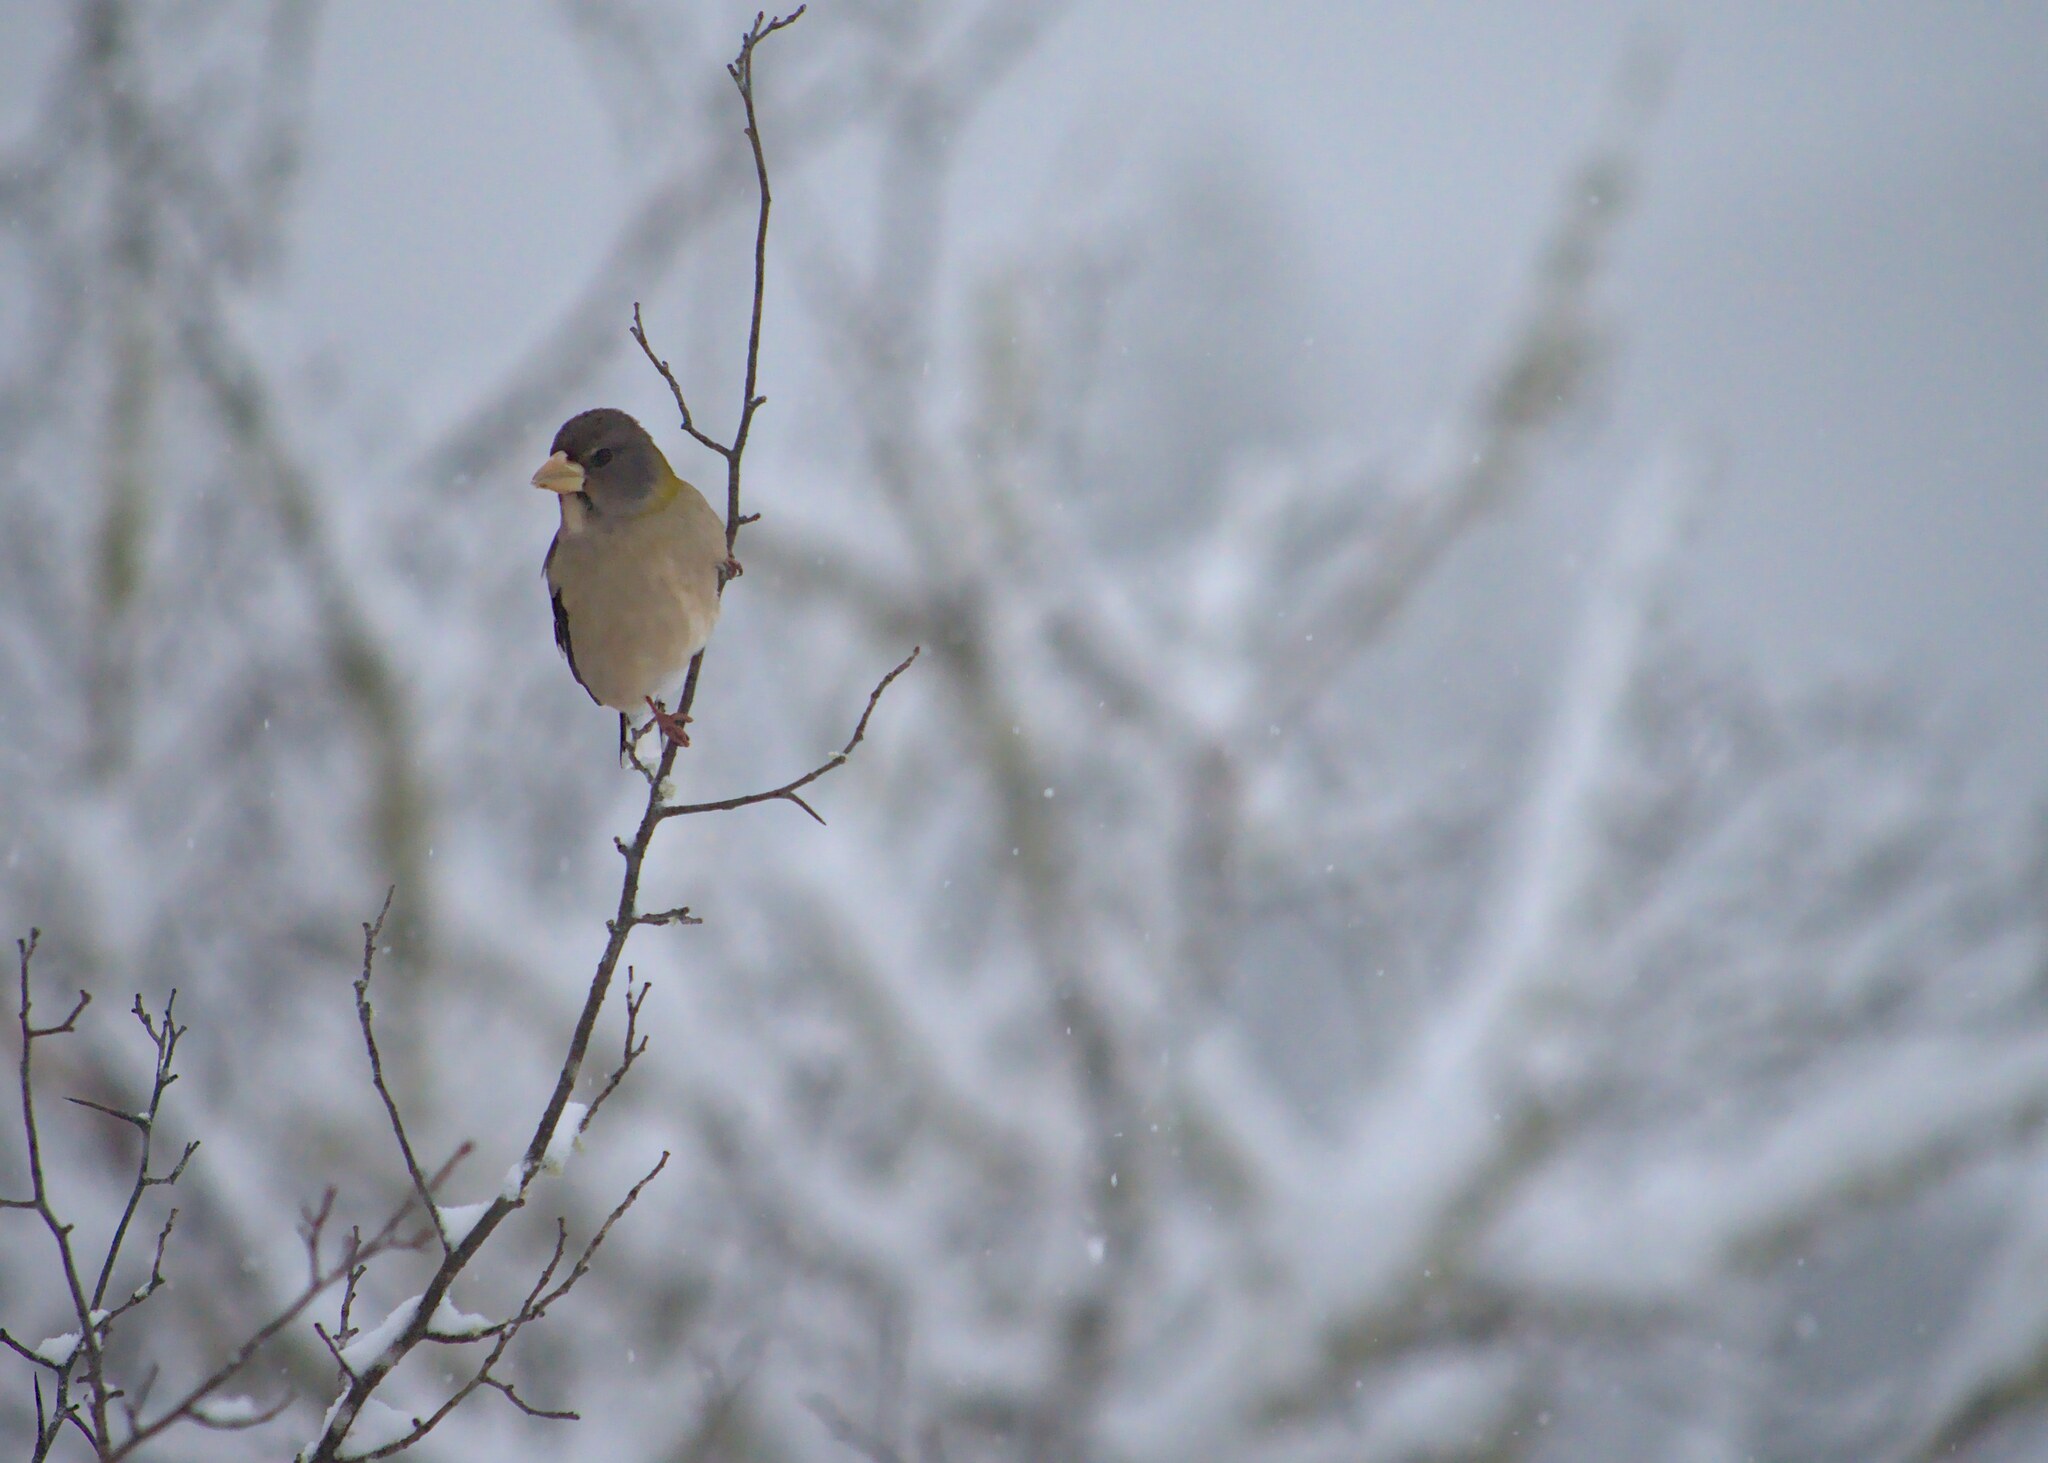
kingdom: Animalia
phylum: Chordata
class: Aves
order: Passeriformes
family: Fringillidae
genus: Hesperiphona
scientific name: Hesperiphona vespertina
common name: Evening grosbeak
